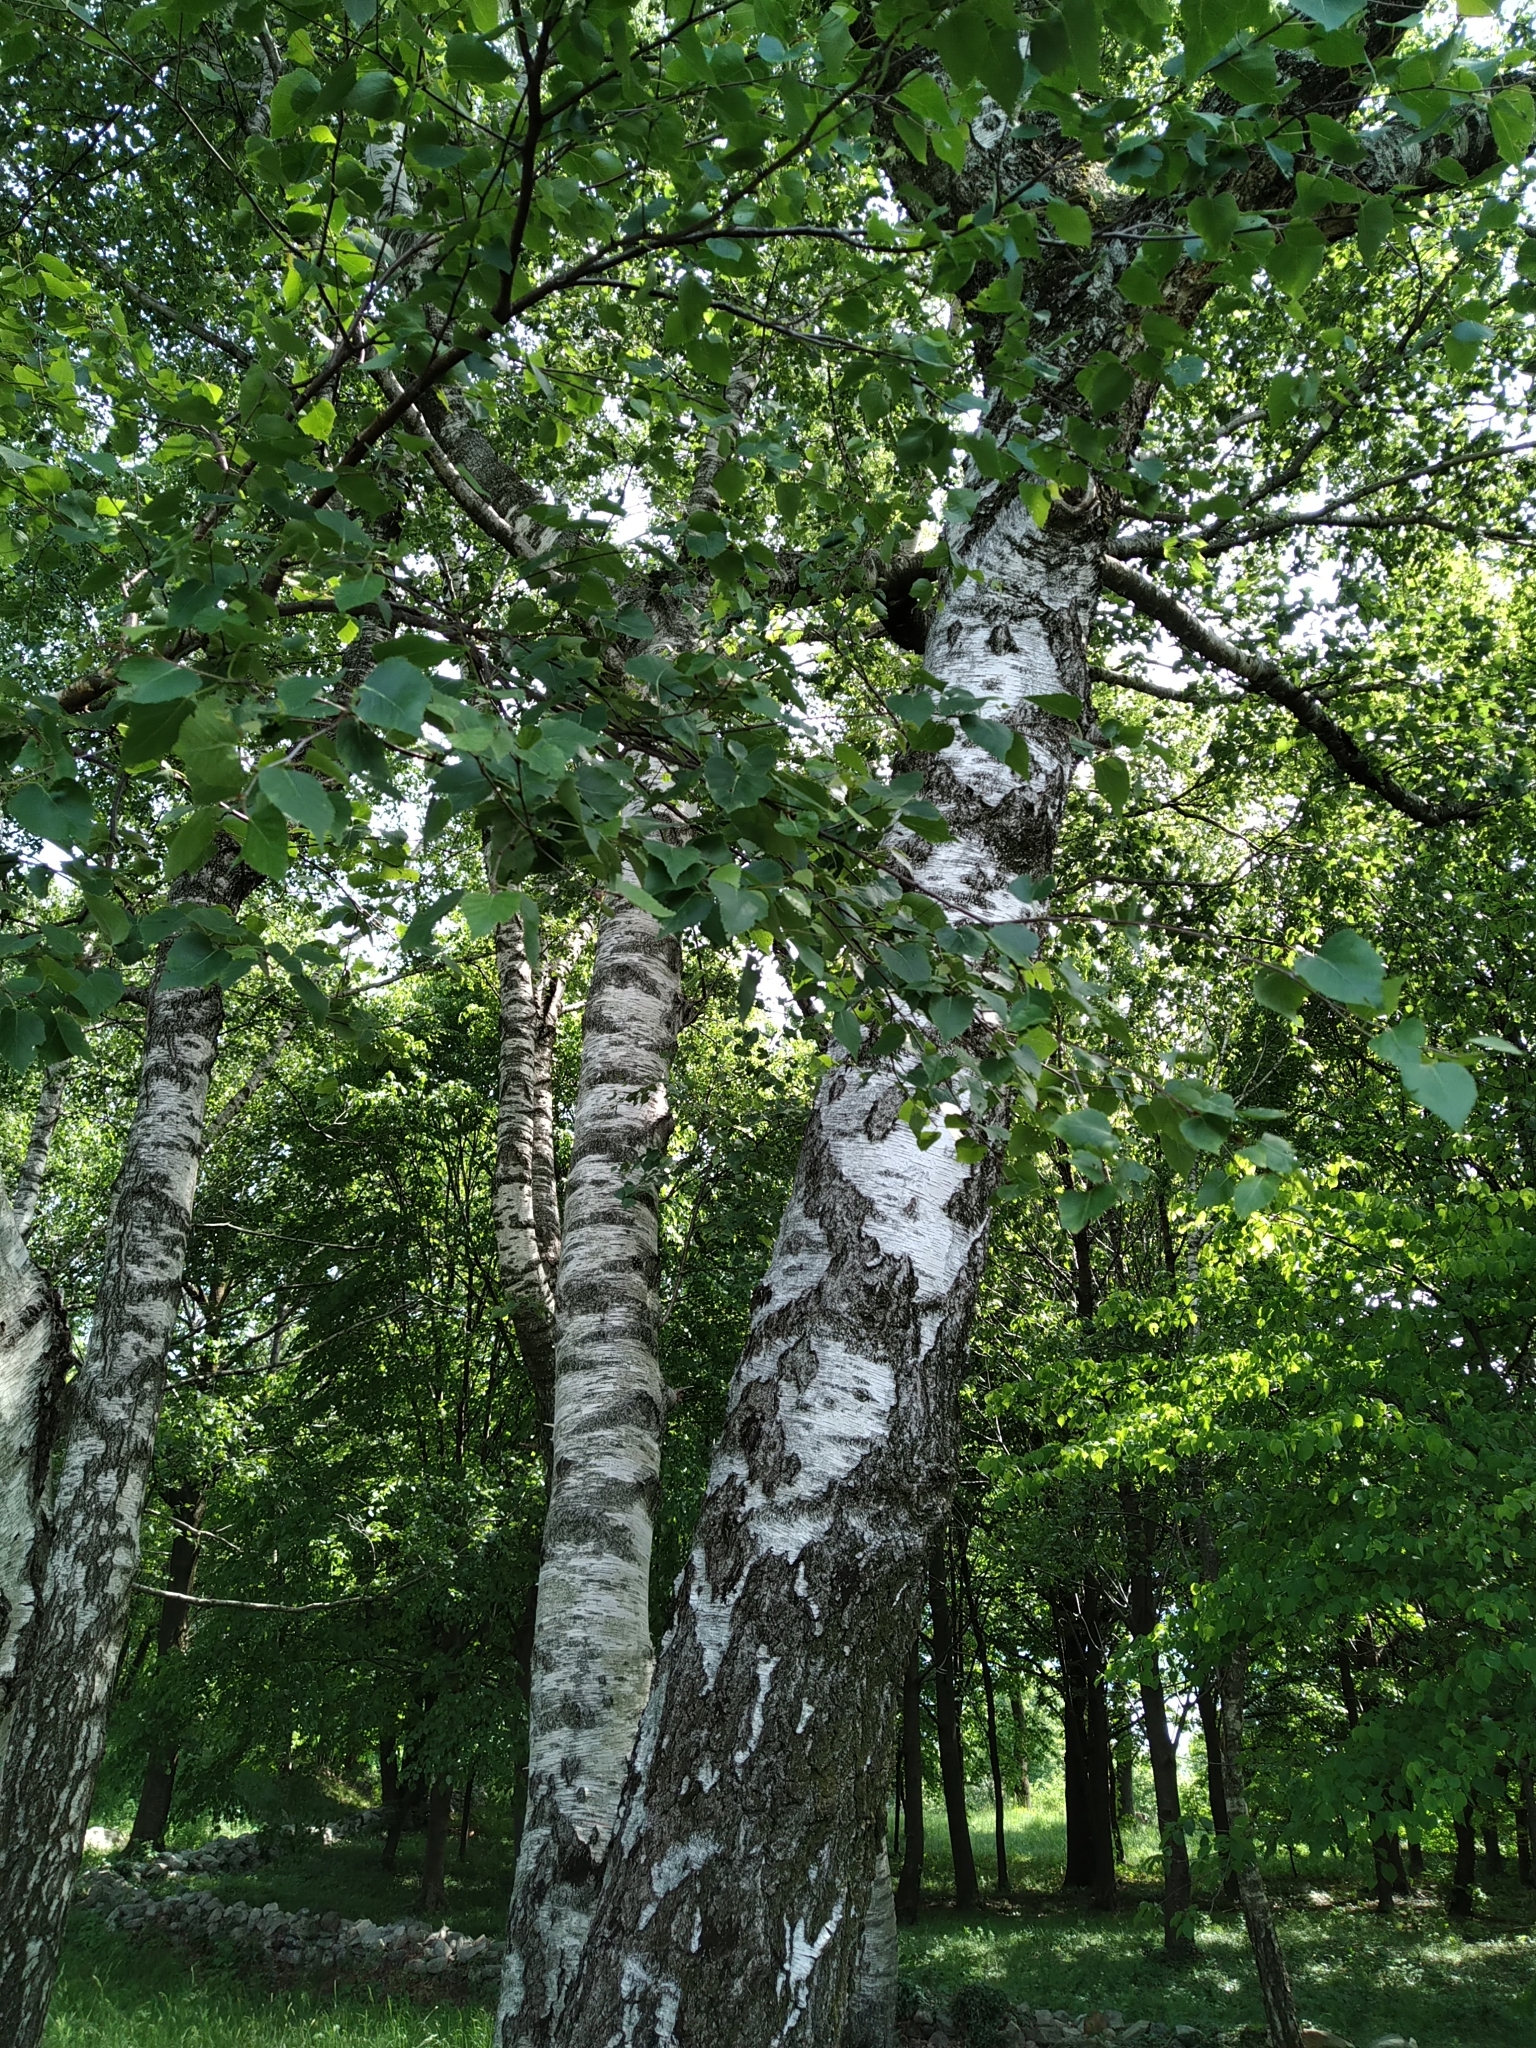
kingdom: Plantae
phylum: Tracheophyta
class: Magnoliopsida
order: Fagales
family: Betulaceae
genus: Betula
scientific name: Betula pendula
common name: Silver birch
